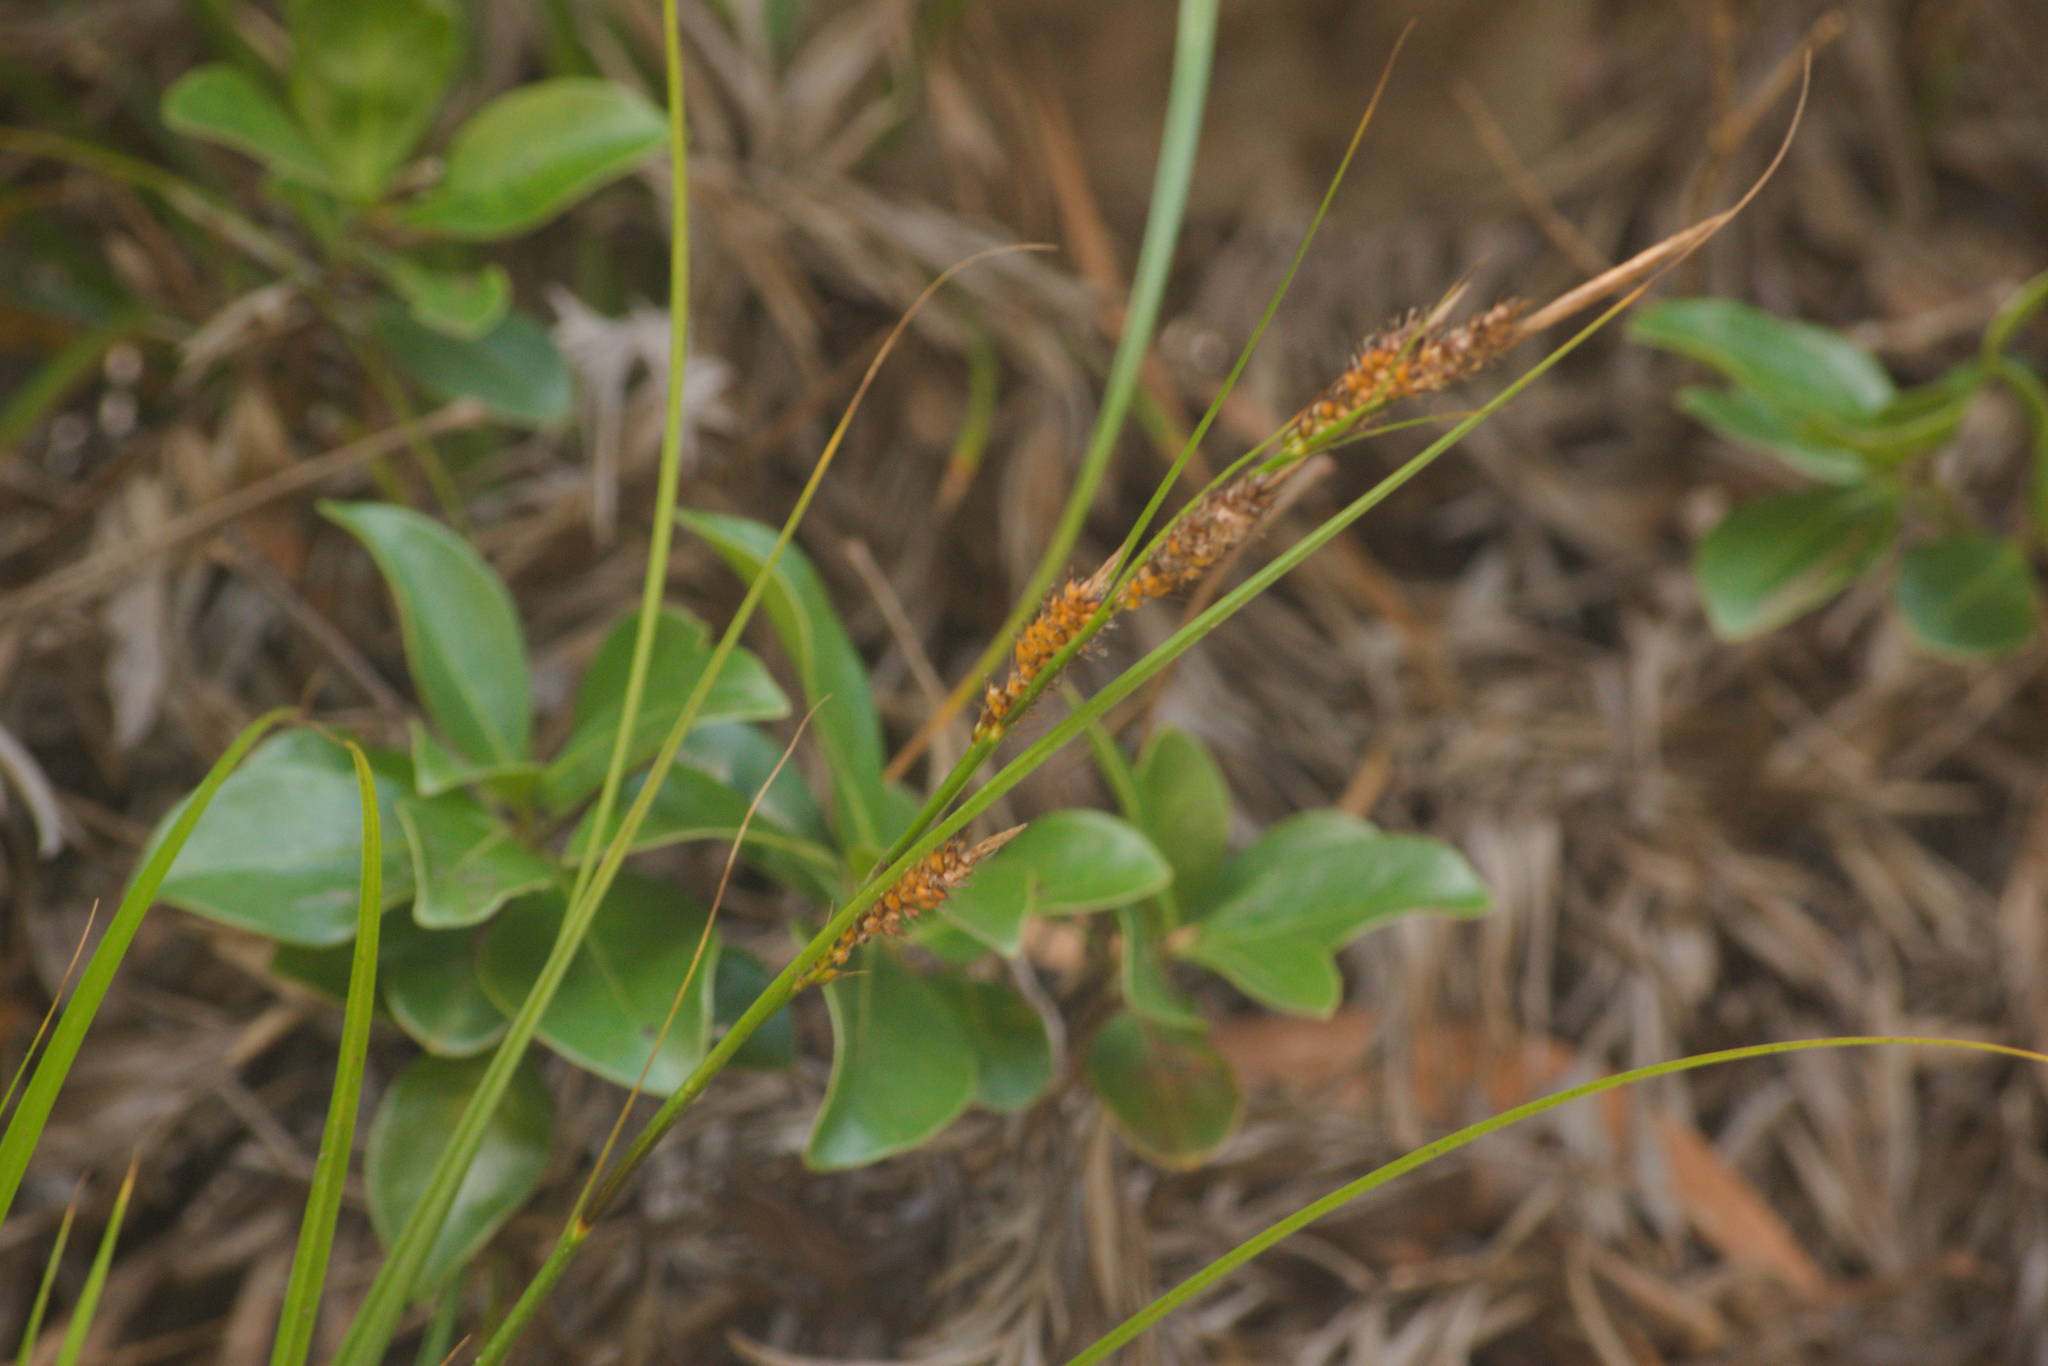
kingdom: Plantae
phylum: Tracheophyta
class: Liliopsida
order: Poales
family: Cyperaceae
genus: Carex
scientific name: Carex wahuensis
